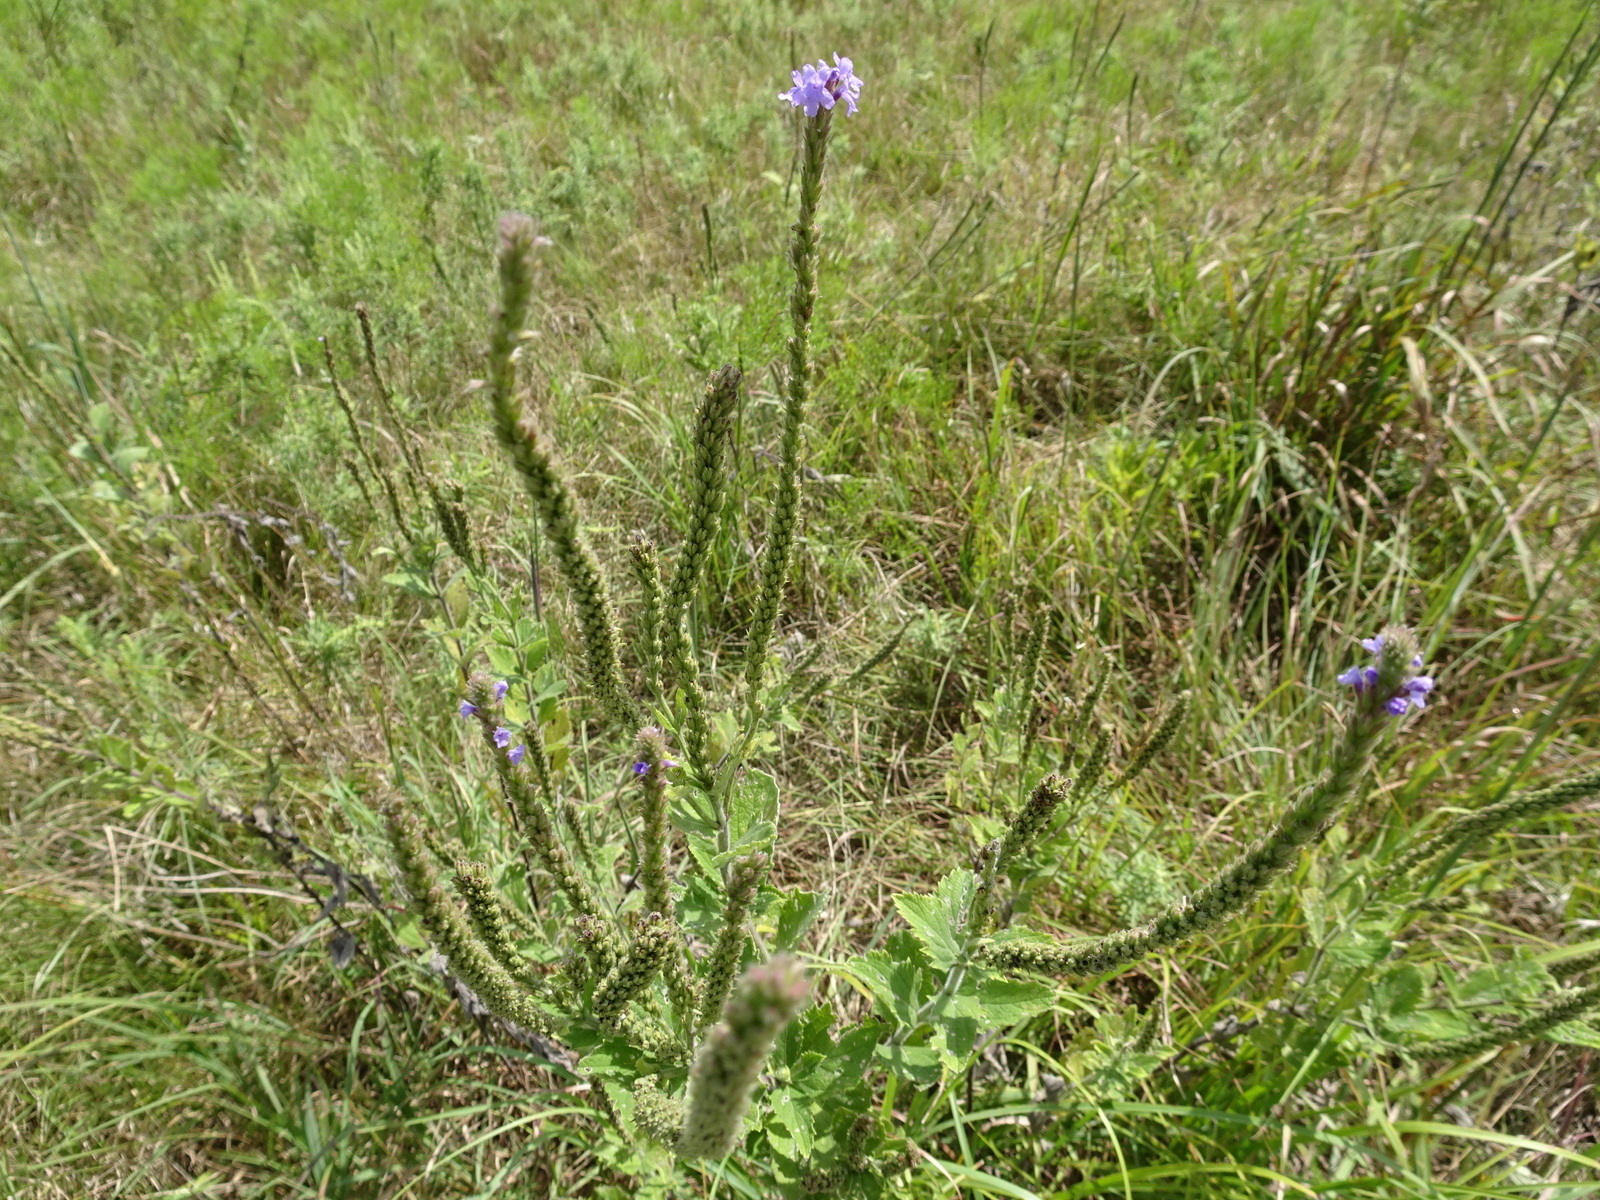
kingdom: Plantae
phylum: Tracheophyta
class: Magnoliopsida
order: Lamiales
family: Verbenaceae
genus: Verbena
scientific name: Verbena stricta
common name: Hoary vervain
